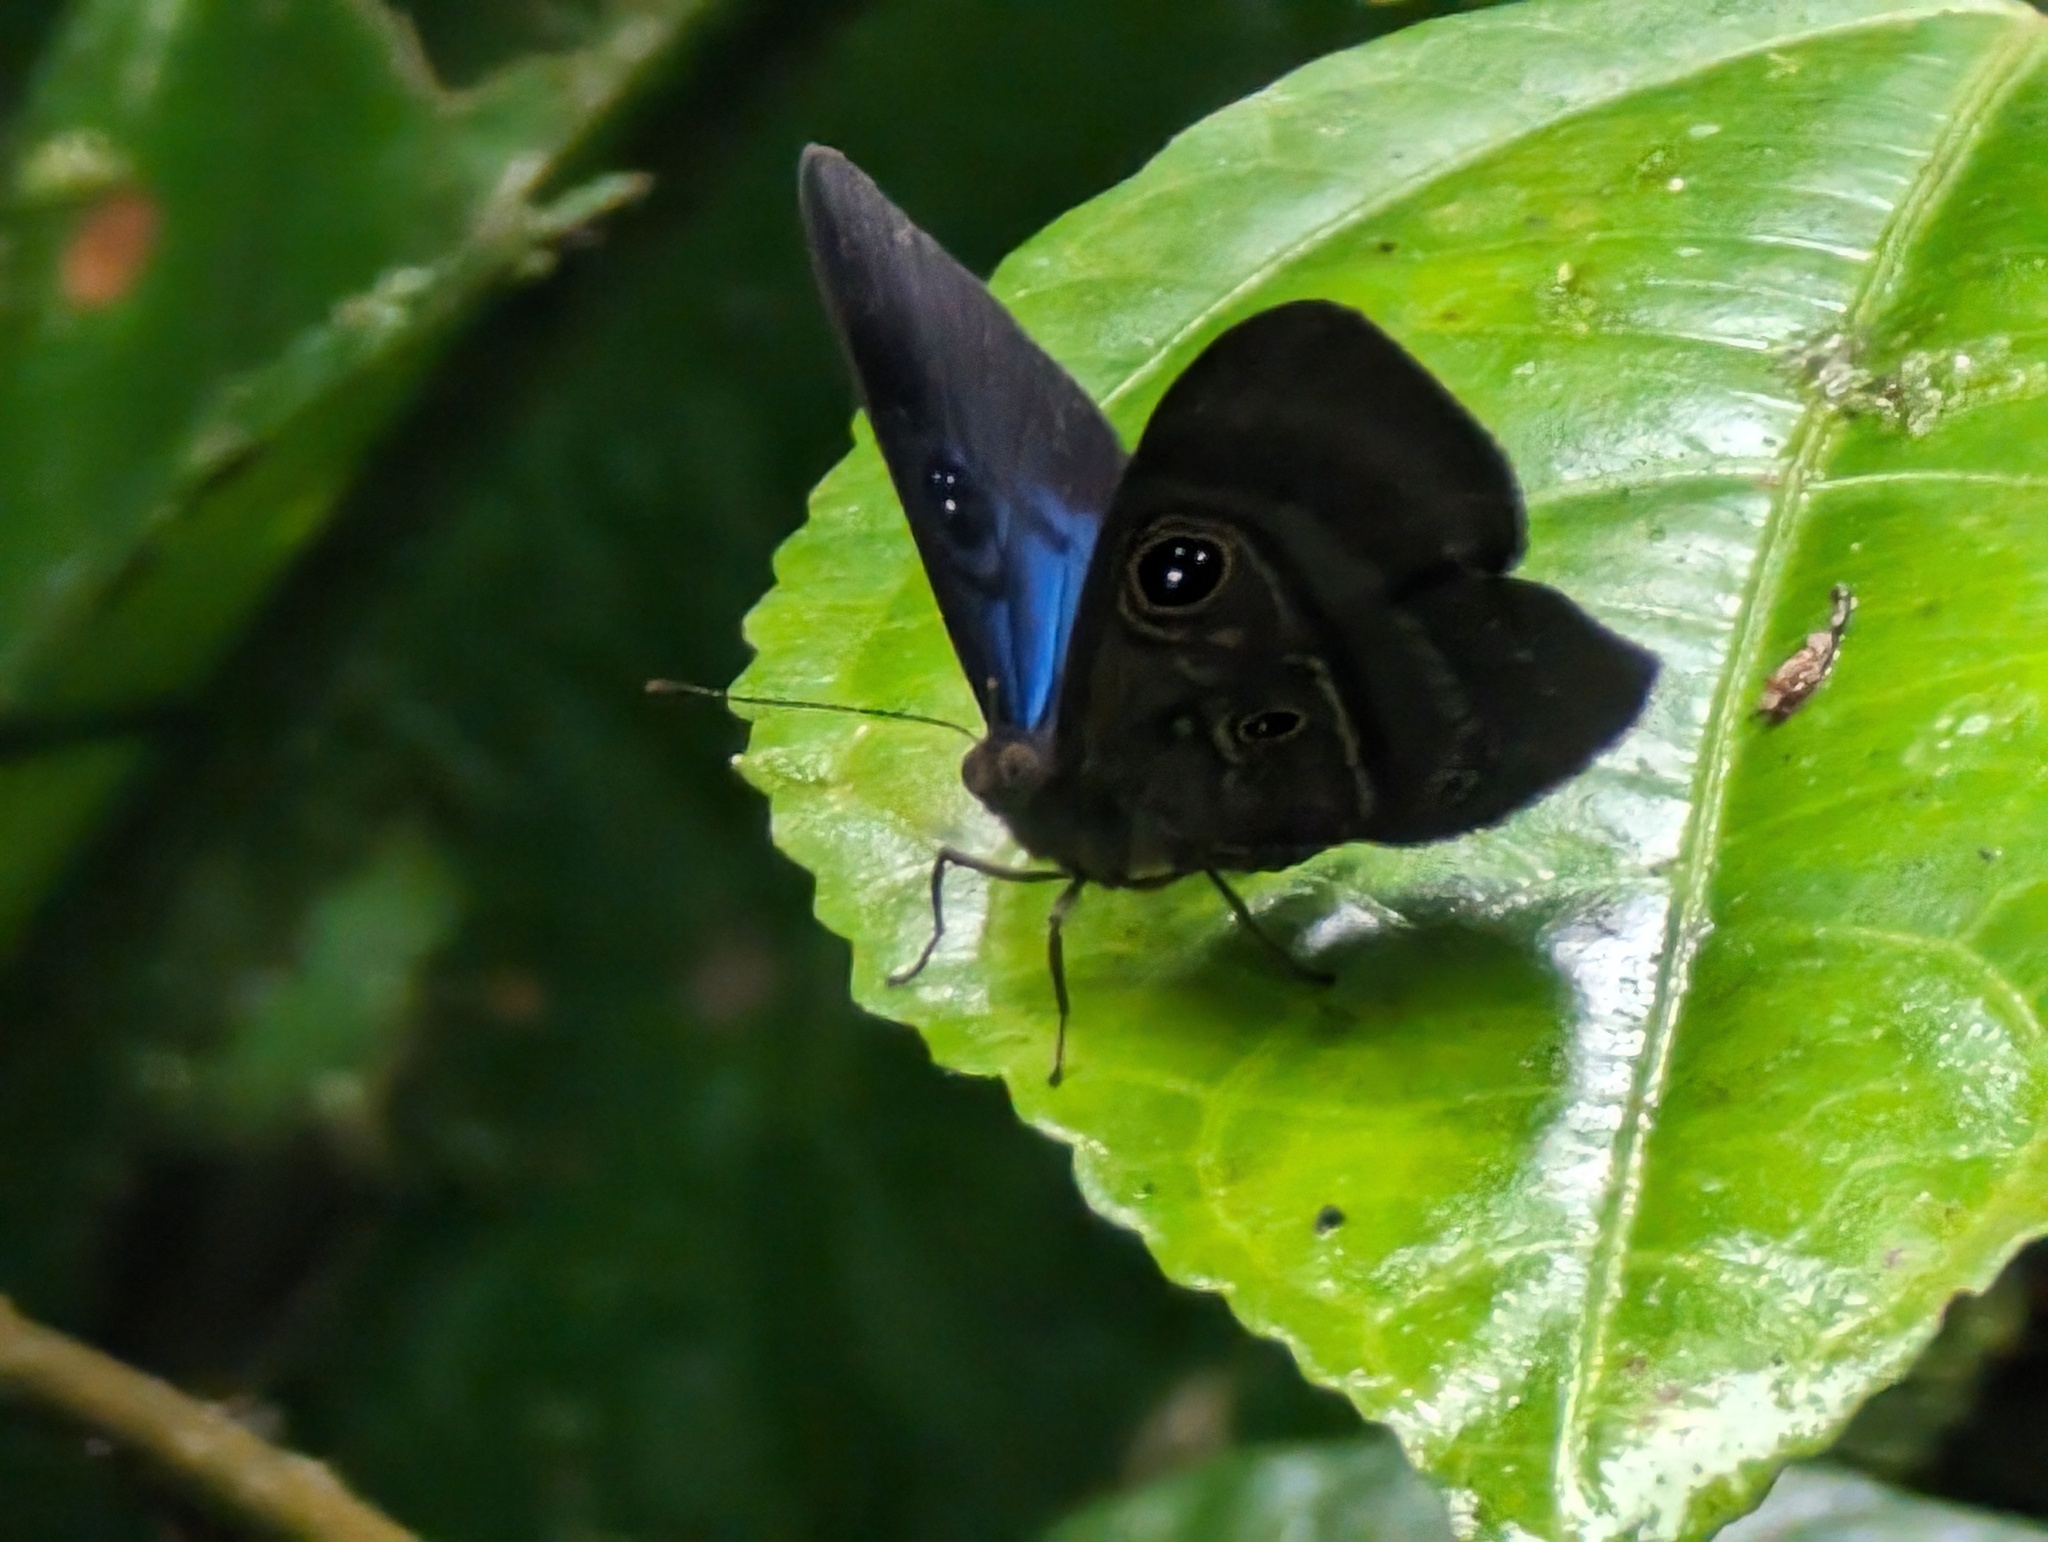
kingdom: Animalia
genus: Mesosemia
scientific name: Mesosemia asa
